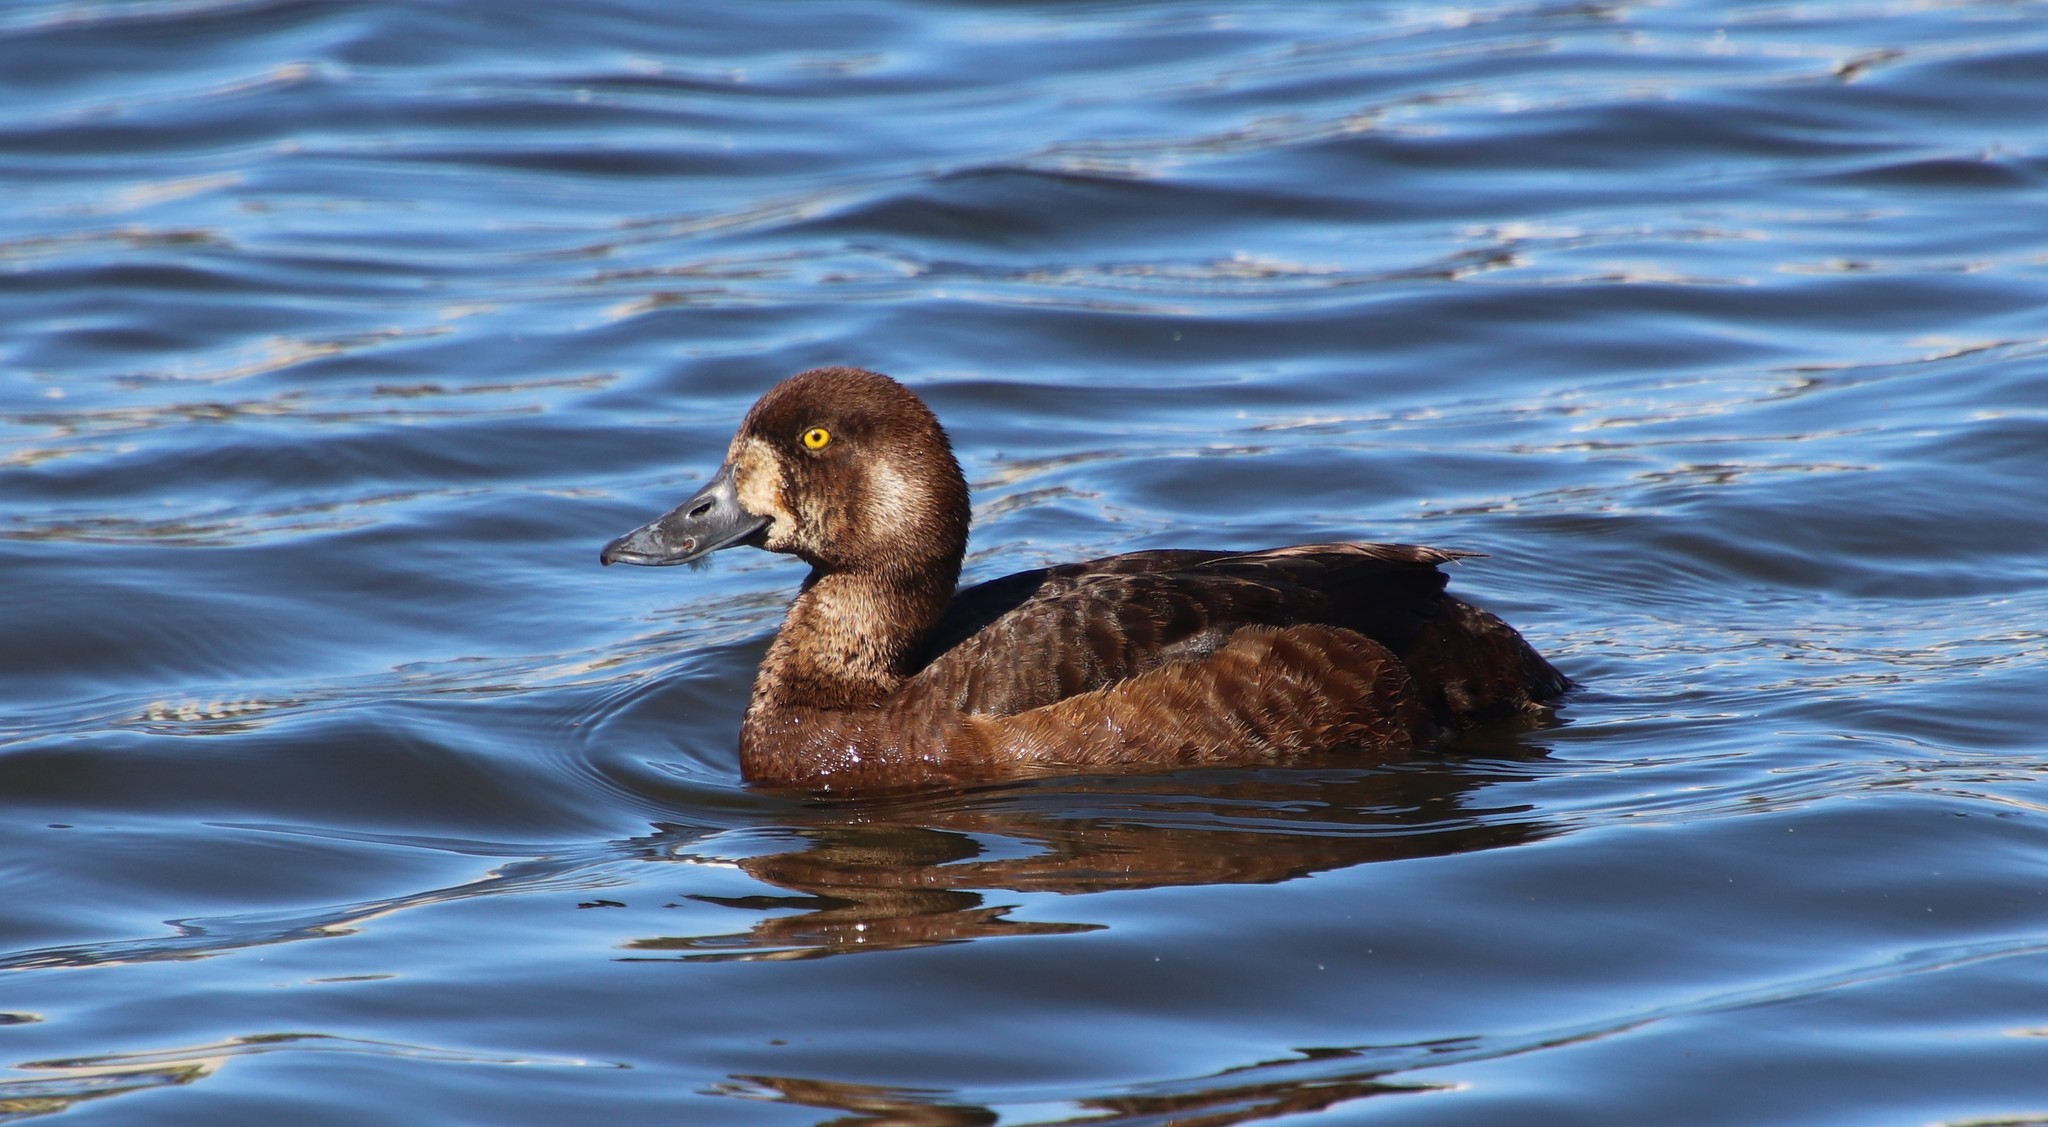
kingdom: Animalia
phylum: Chordata
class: Aves
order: Anseriformes
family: Anatidae
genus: Aythya
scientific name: Aythya marila
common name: Greater scaup
